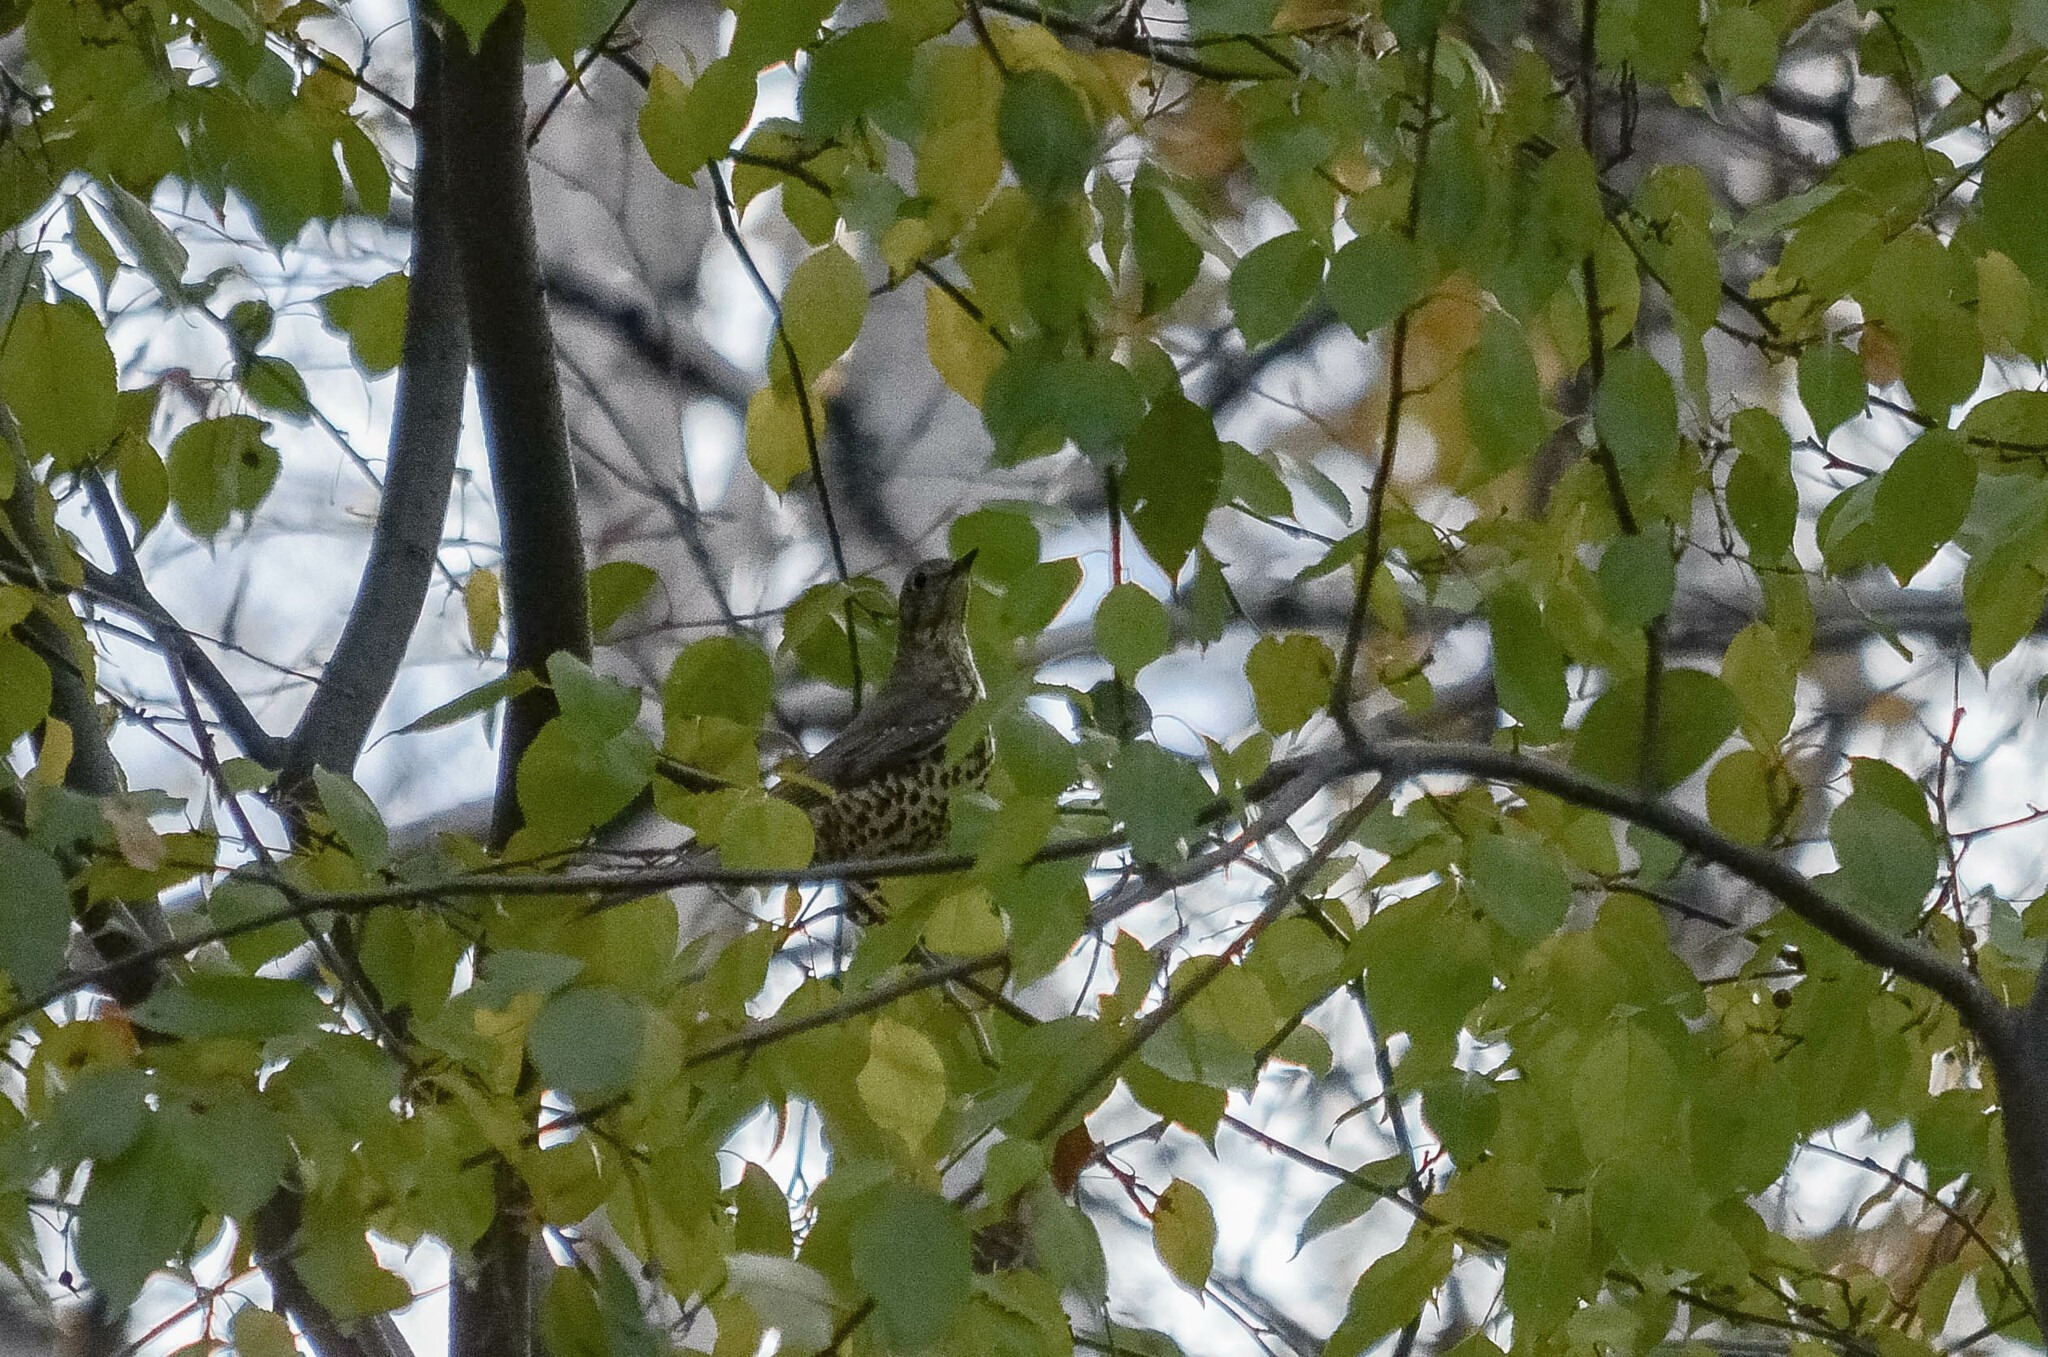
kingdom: Animalia
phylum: Chordata
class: Aves
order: Passeriformes
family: Turdidae
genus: Turdus
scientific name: Turdus viscivorus
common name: Mistle thrush
